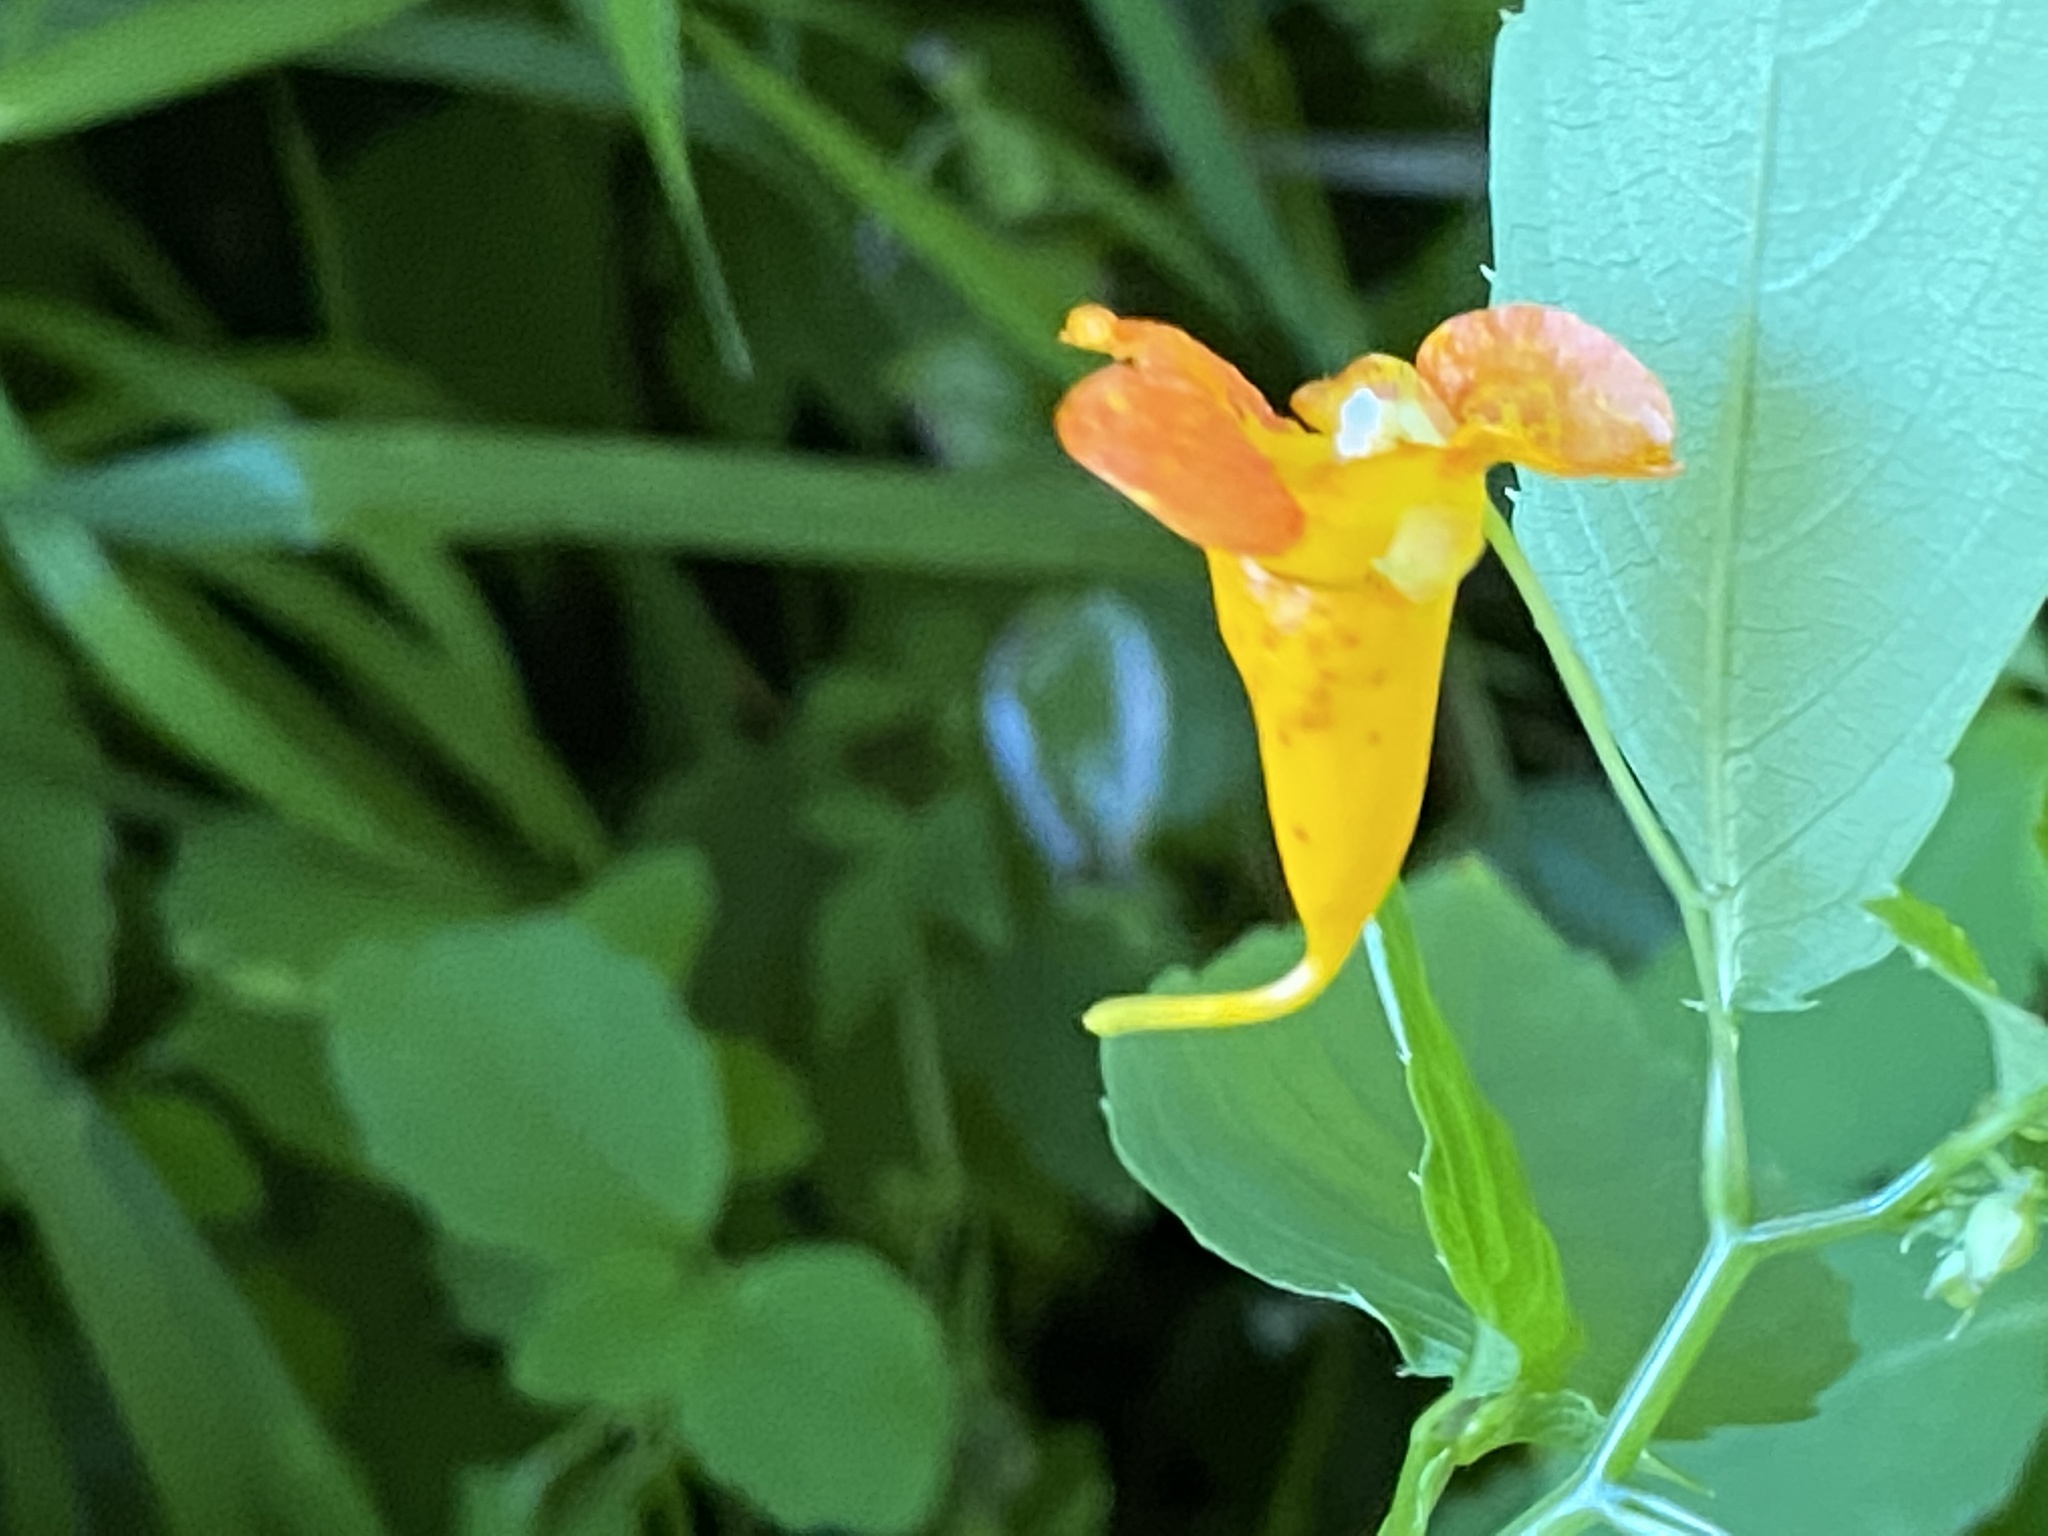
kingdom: Plantae
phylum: Tracheophyta
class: Magnoliopsida
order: Ericales
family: Balsaminaceae
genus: Impatiens
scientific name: Impatiens capensis
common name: Orange balsam
